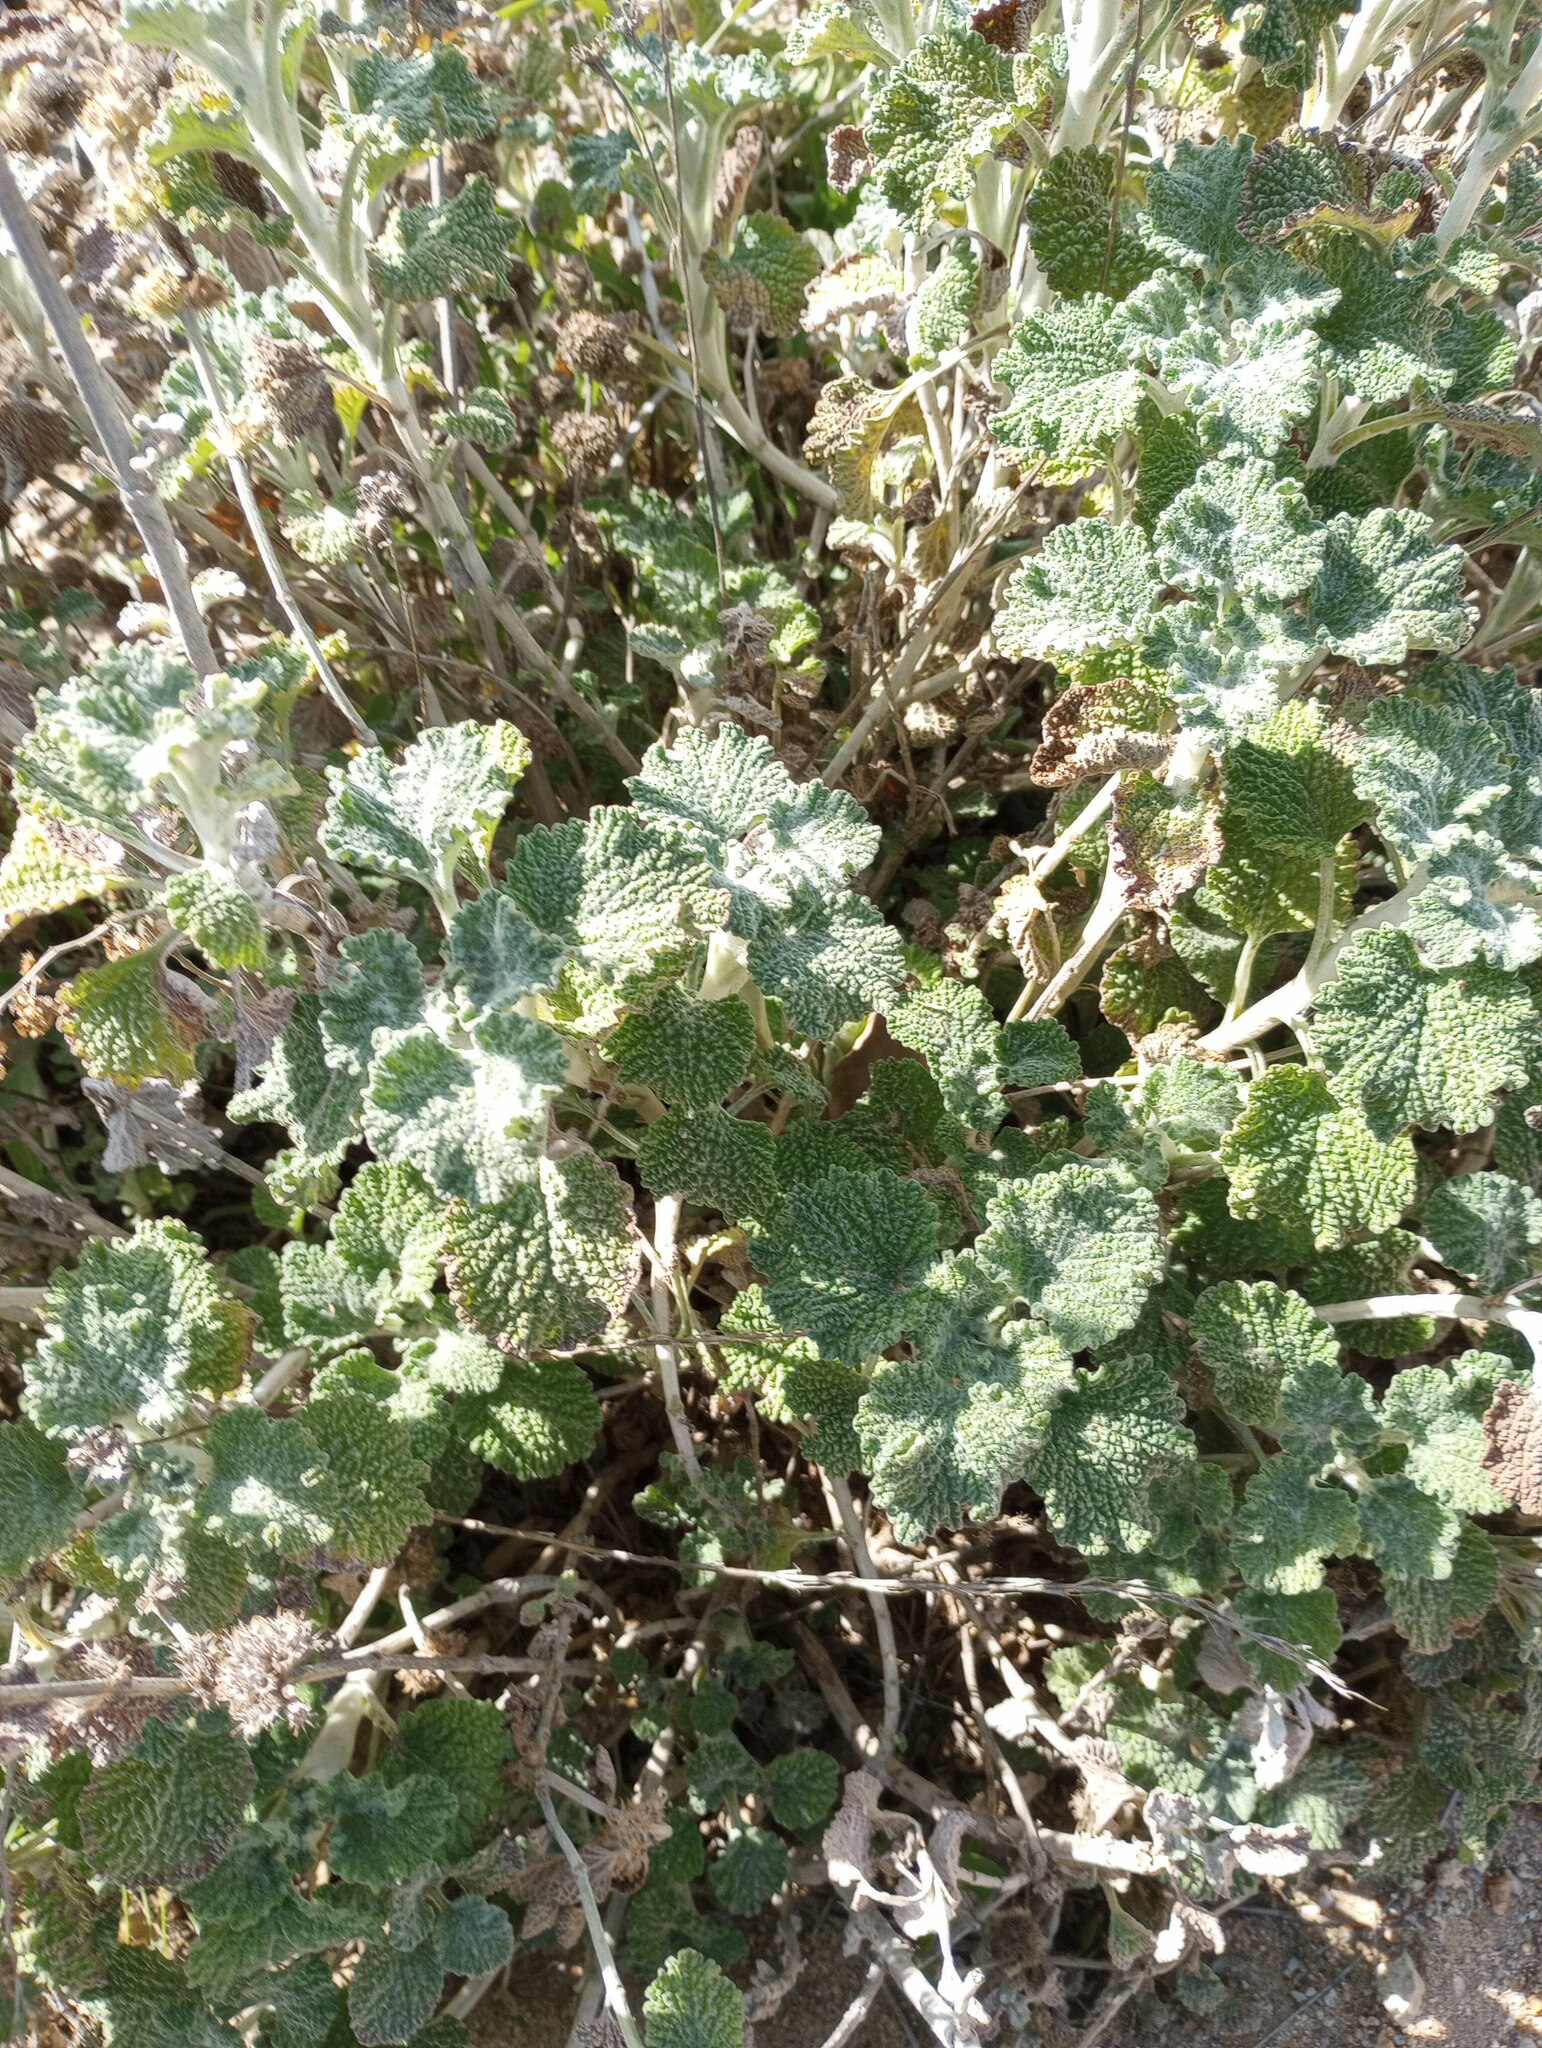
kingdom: Plantae
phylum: Tracheophyta
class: Magnoliopsida
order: Lamiales
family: Lamiaceae
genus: Marrubium
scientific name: Marrubium vulgare
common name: Horehound
